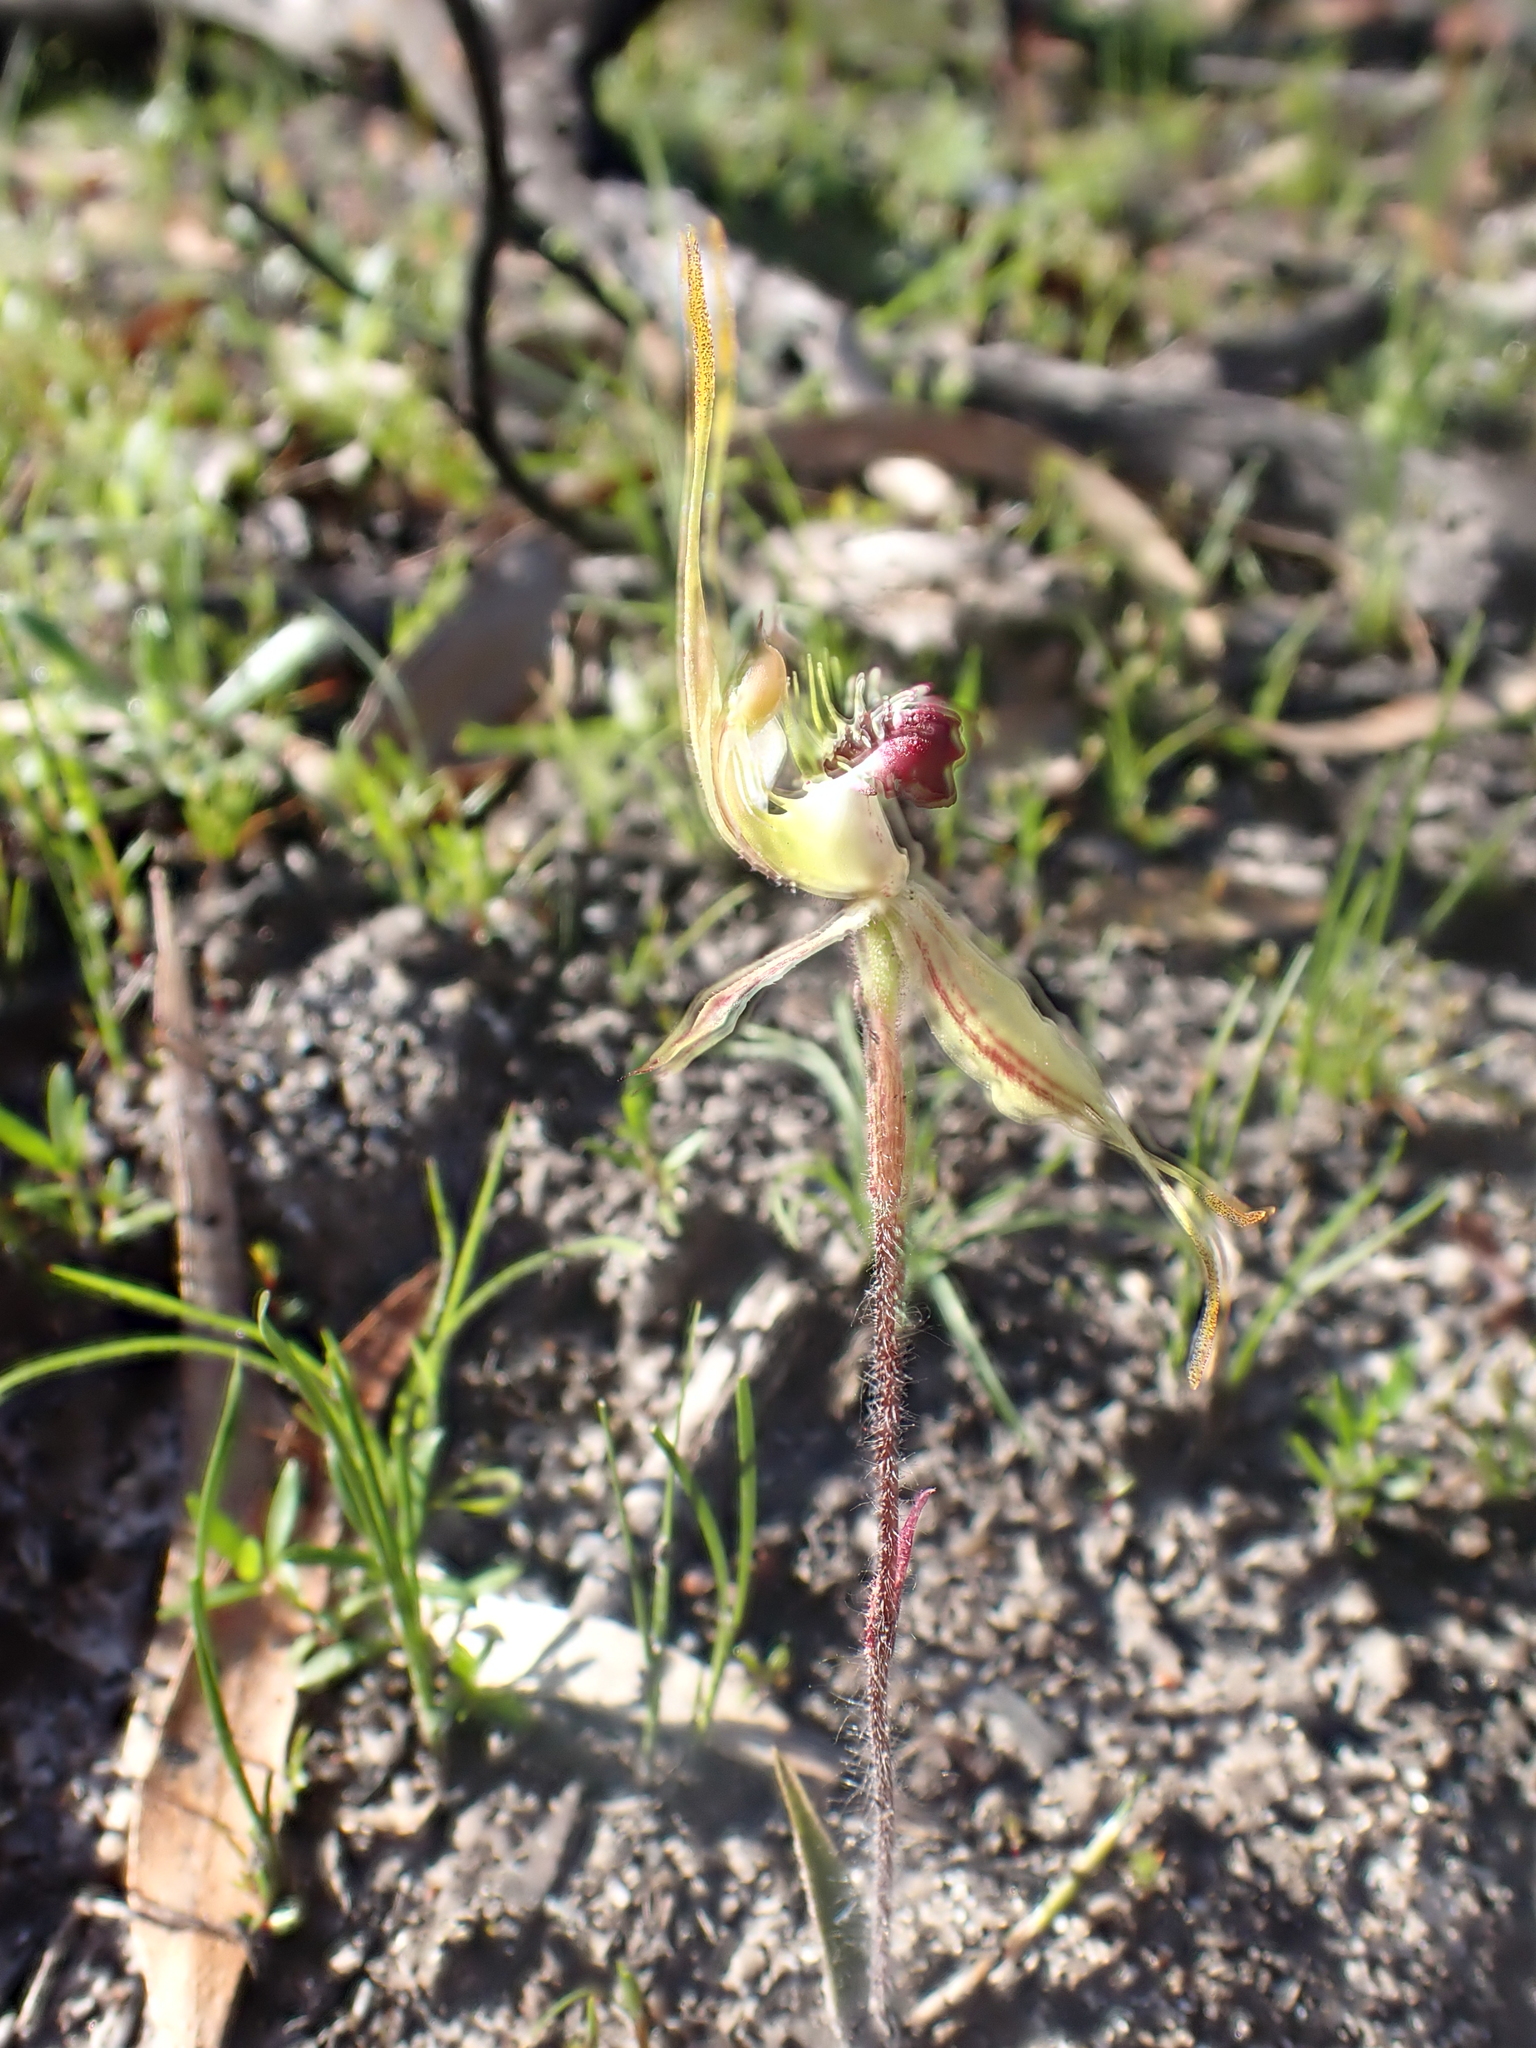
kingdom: Plantae
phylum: Tracheophyta
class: Liliopsida
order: Asparagales
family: Orchidaceae
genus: Caladenia
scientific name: Caladenia parva
